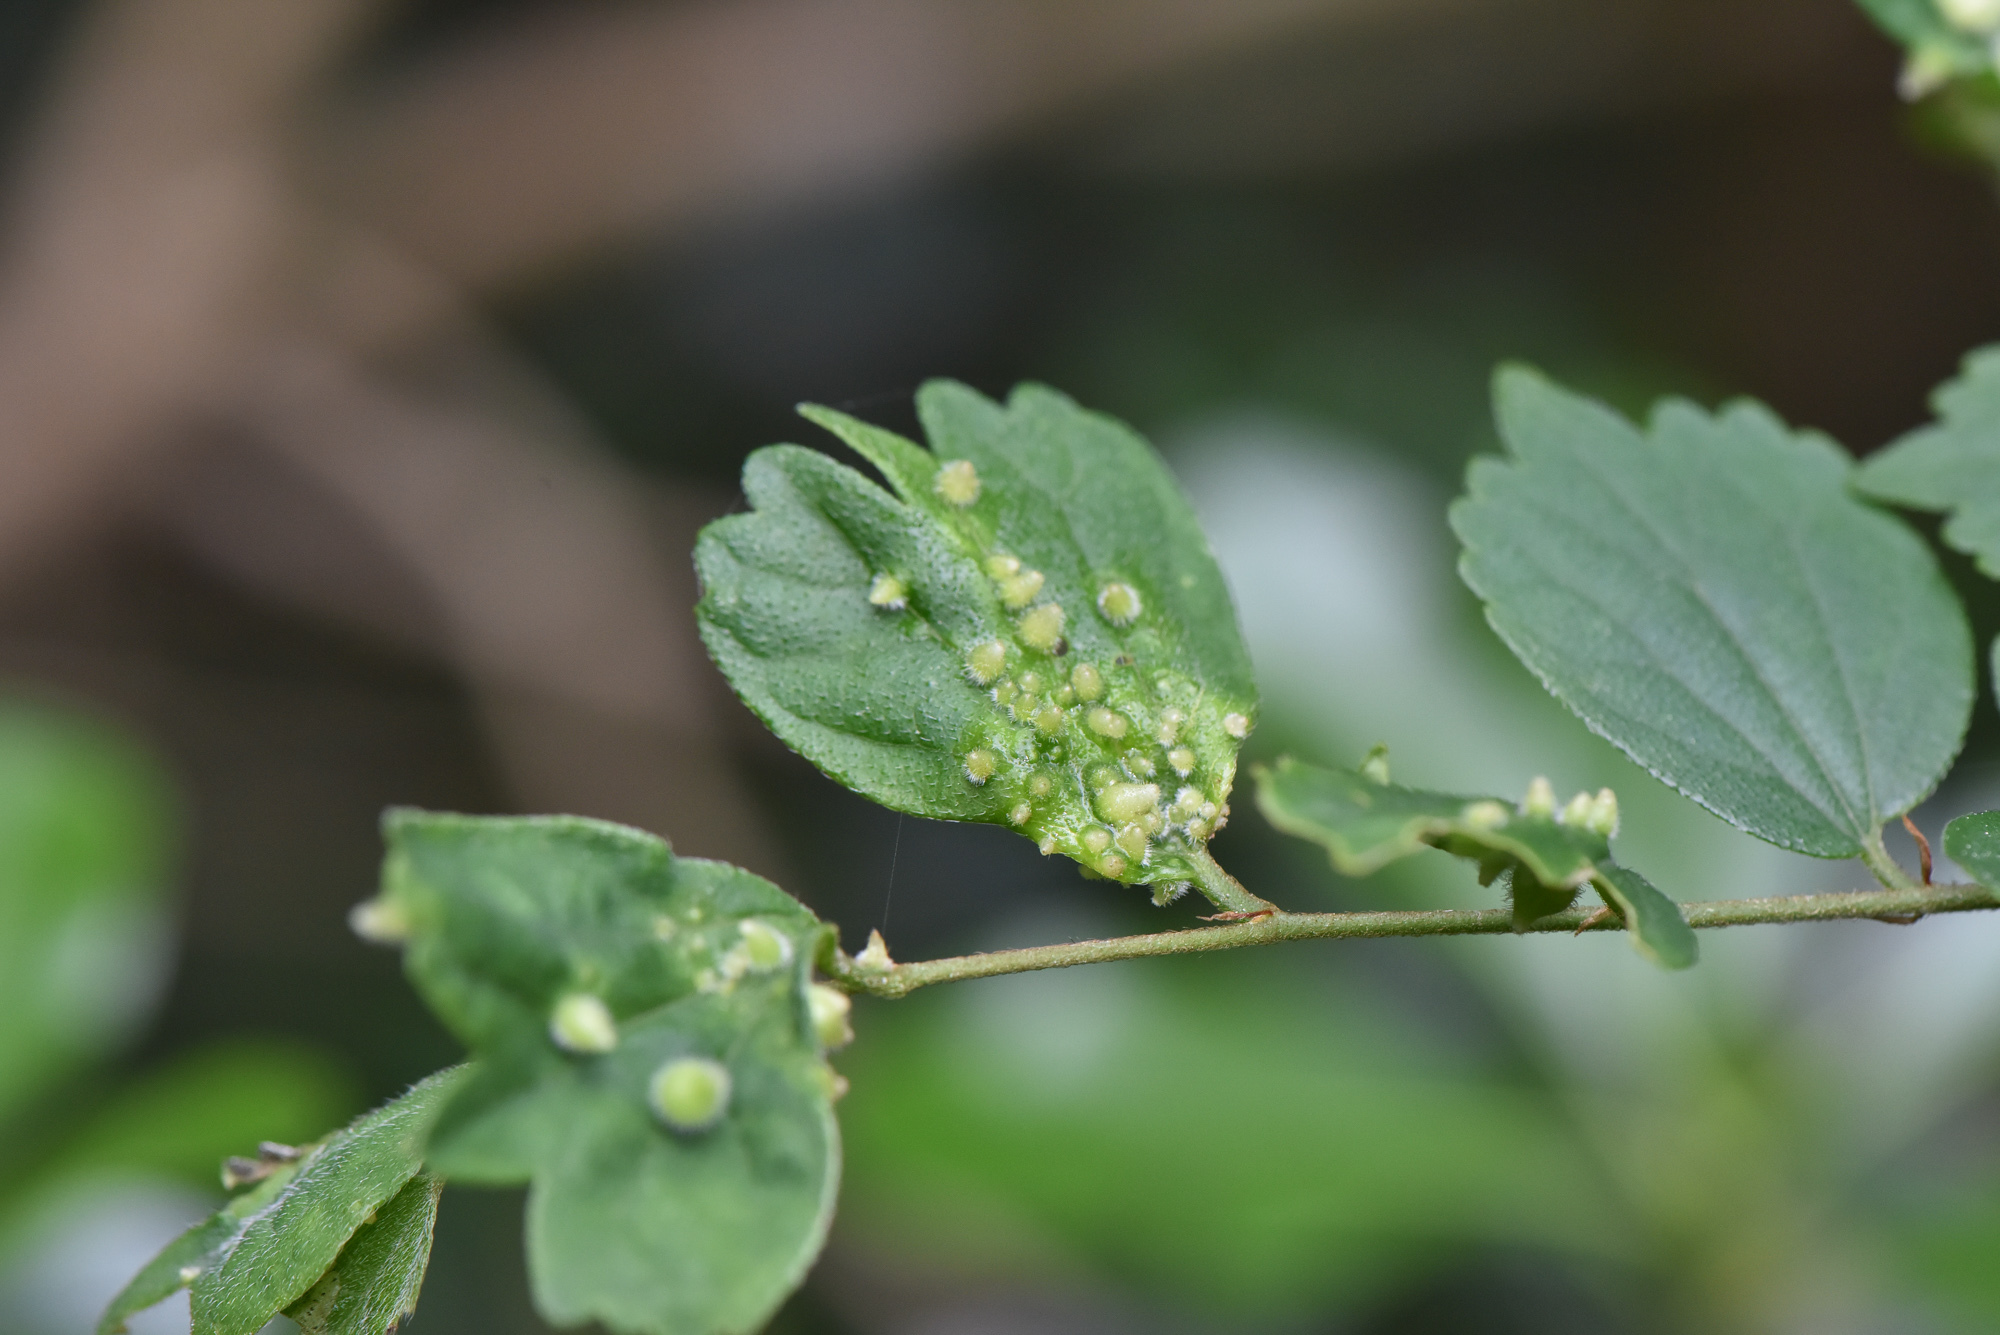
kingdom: Plantae
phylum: Tracheophyta
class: Magnoliopsida
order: Rosales
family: Cannabaceae
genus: Celtis
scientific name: Celtis biondii
